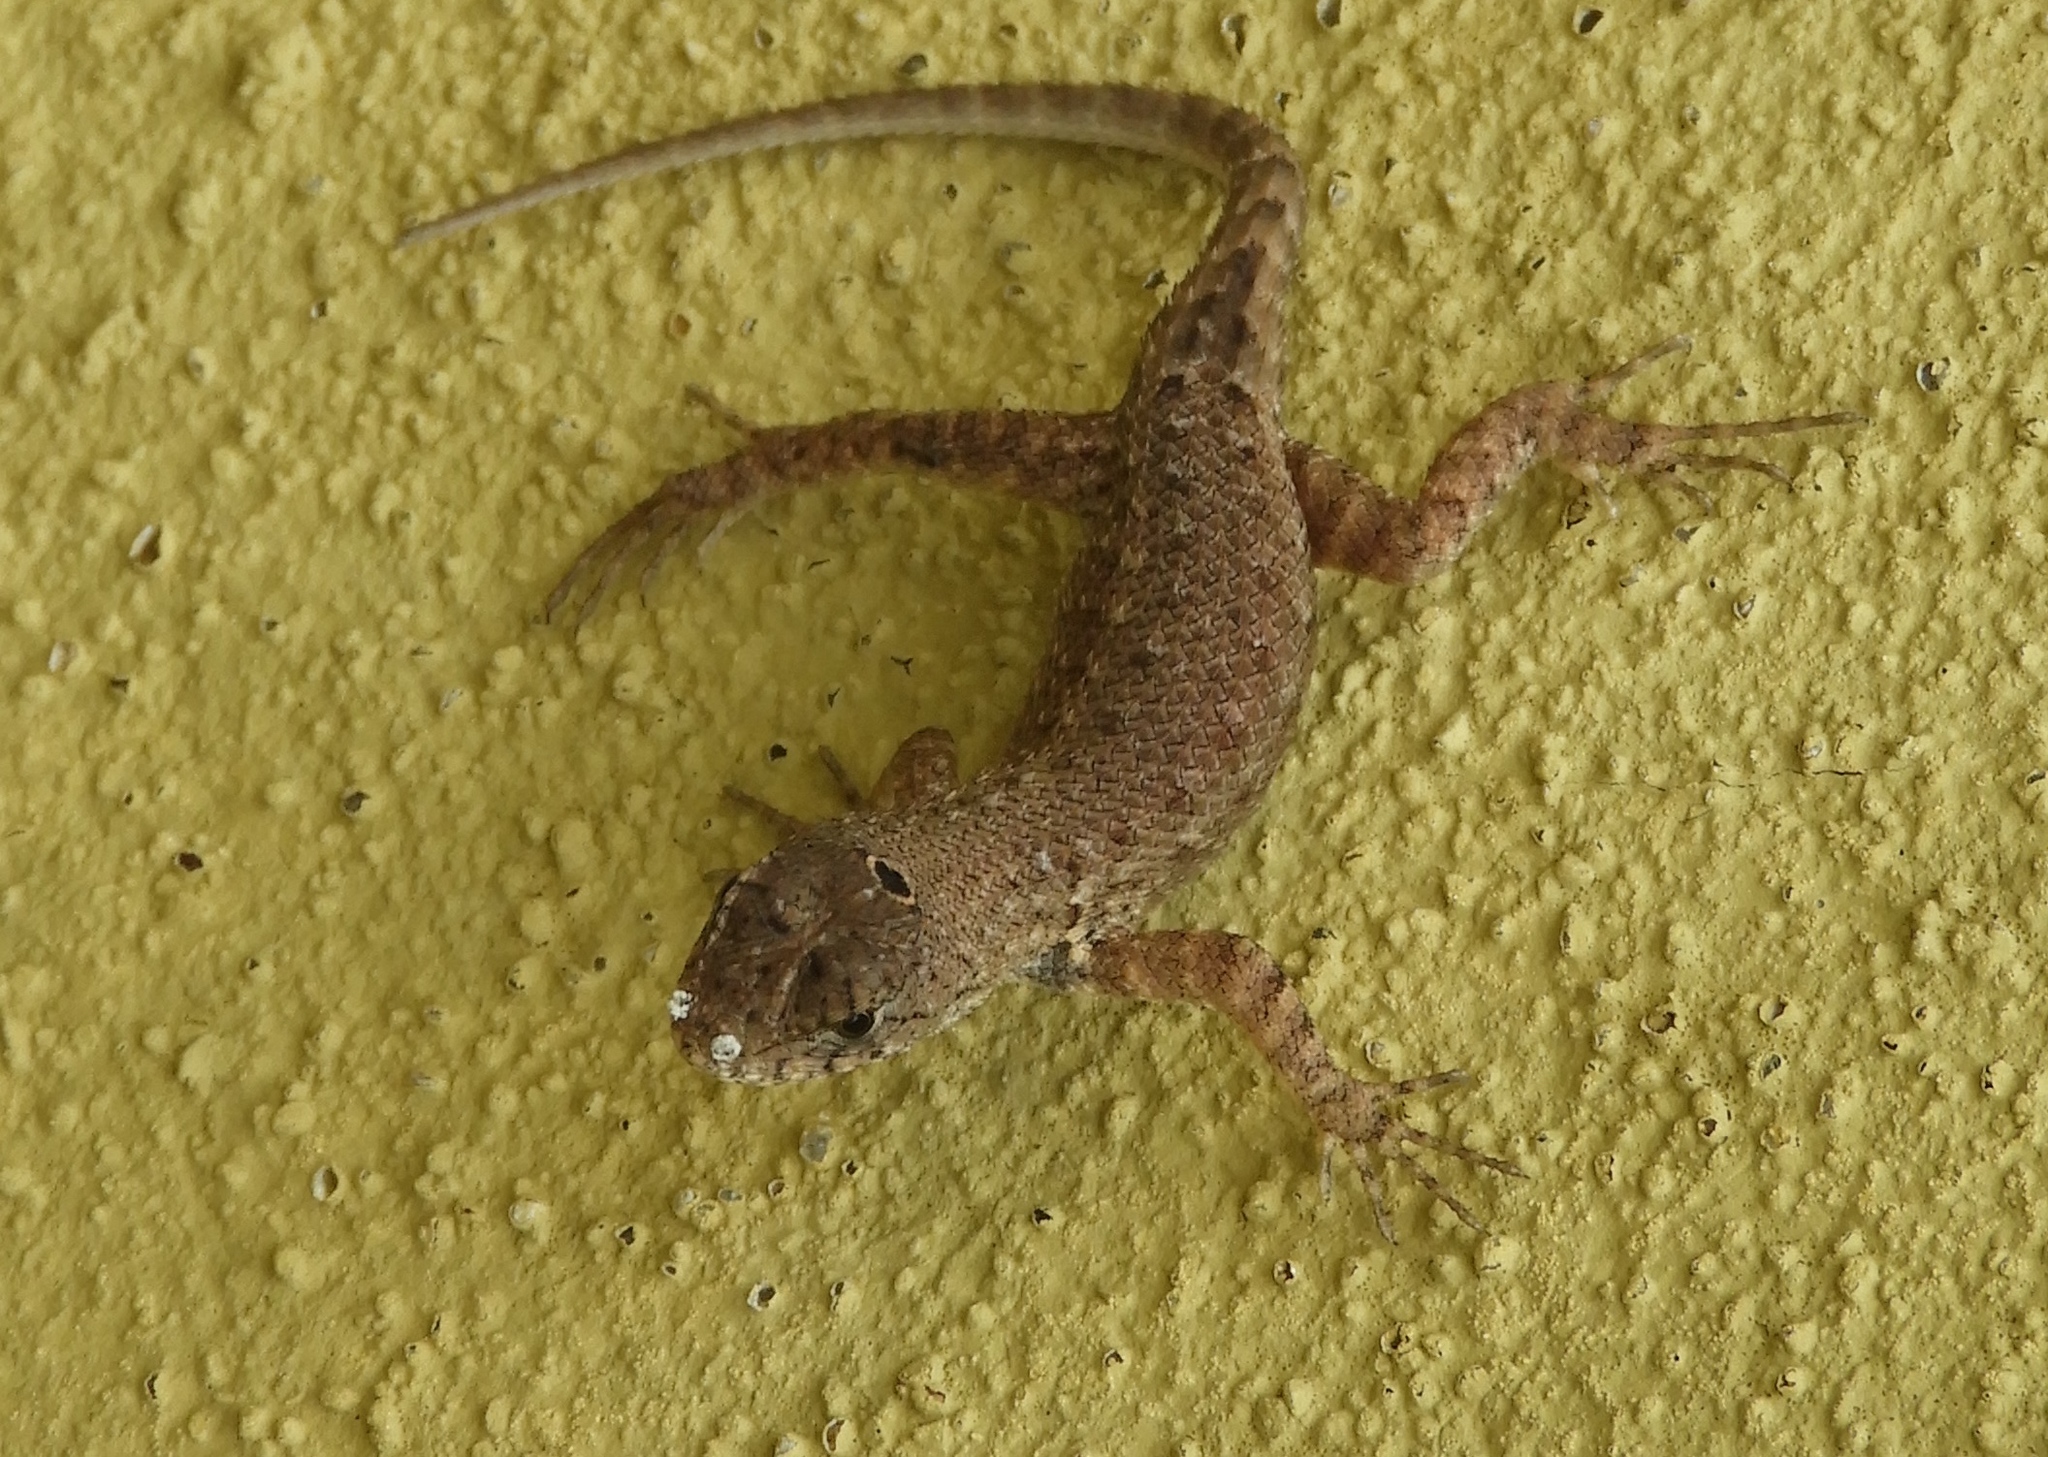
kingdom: Animalia
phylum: Chordata
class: Squamata
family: Phrynosomatidae
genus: Sceloporus
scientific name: Sceloporus nelsoni
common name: Nelson's spiny lizard
